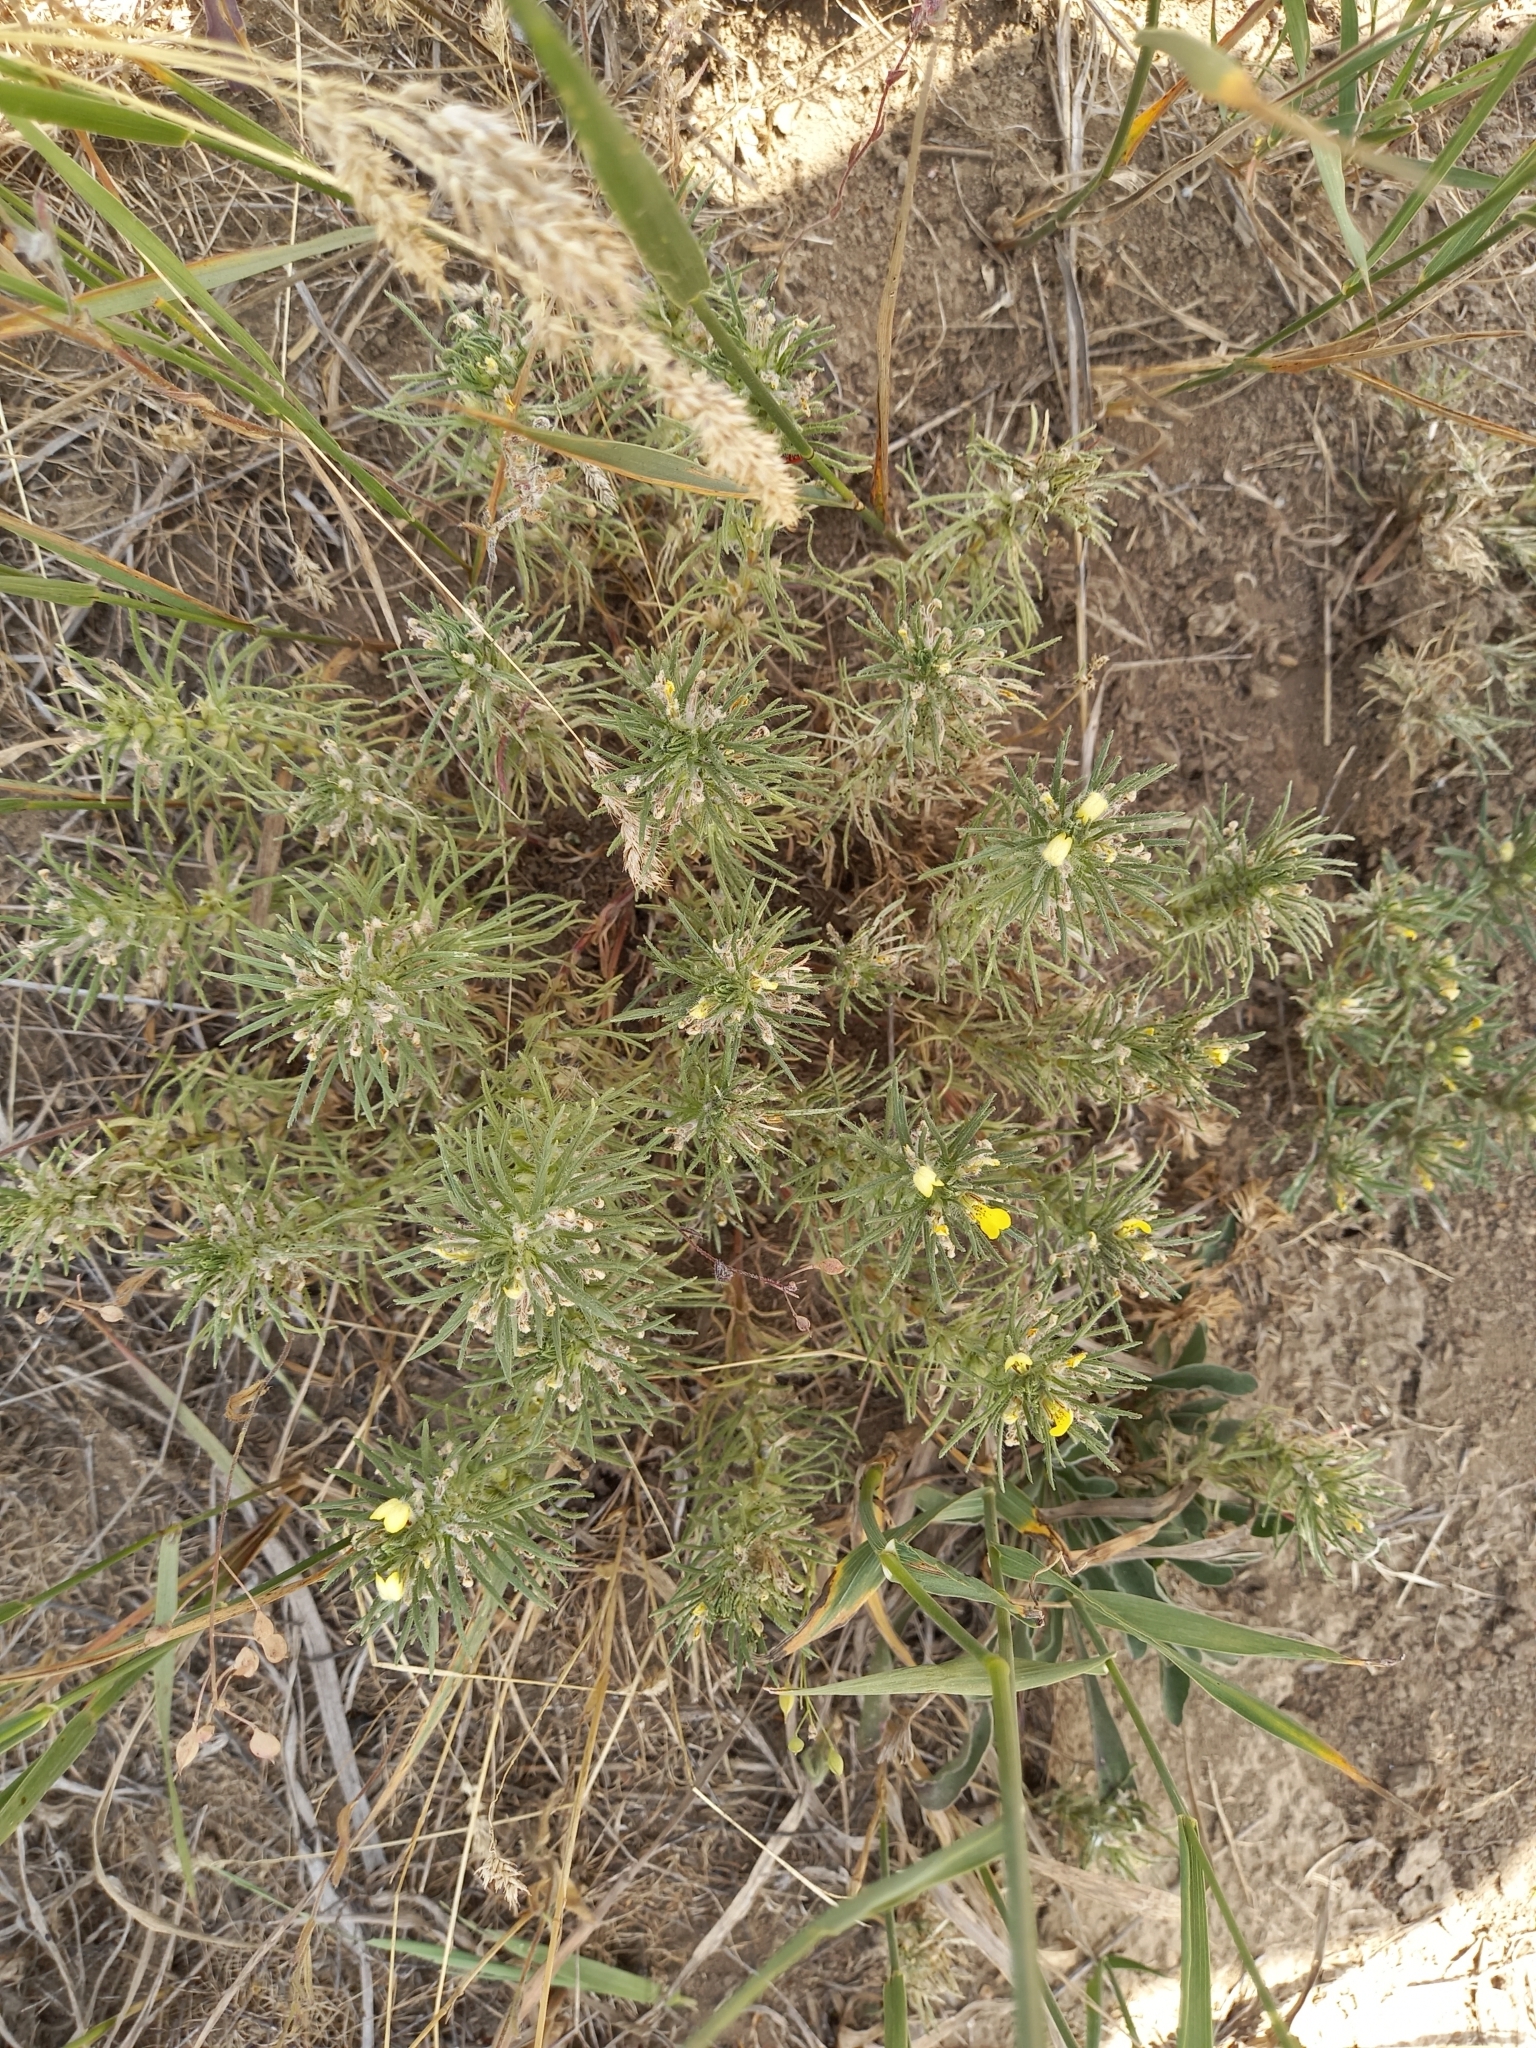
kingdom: Plantae
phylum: Tracheophyta
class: Magnoliopsida
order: Lamiales
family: Lamiaceae
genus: Ajuga
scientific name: Ajuga chamaepitys
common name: Ground-pine
